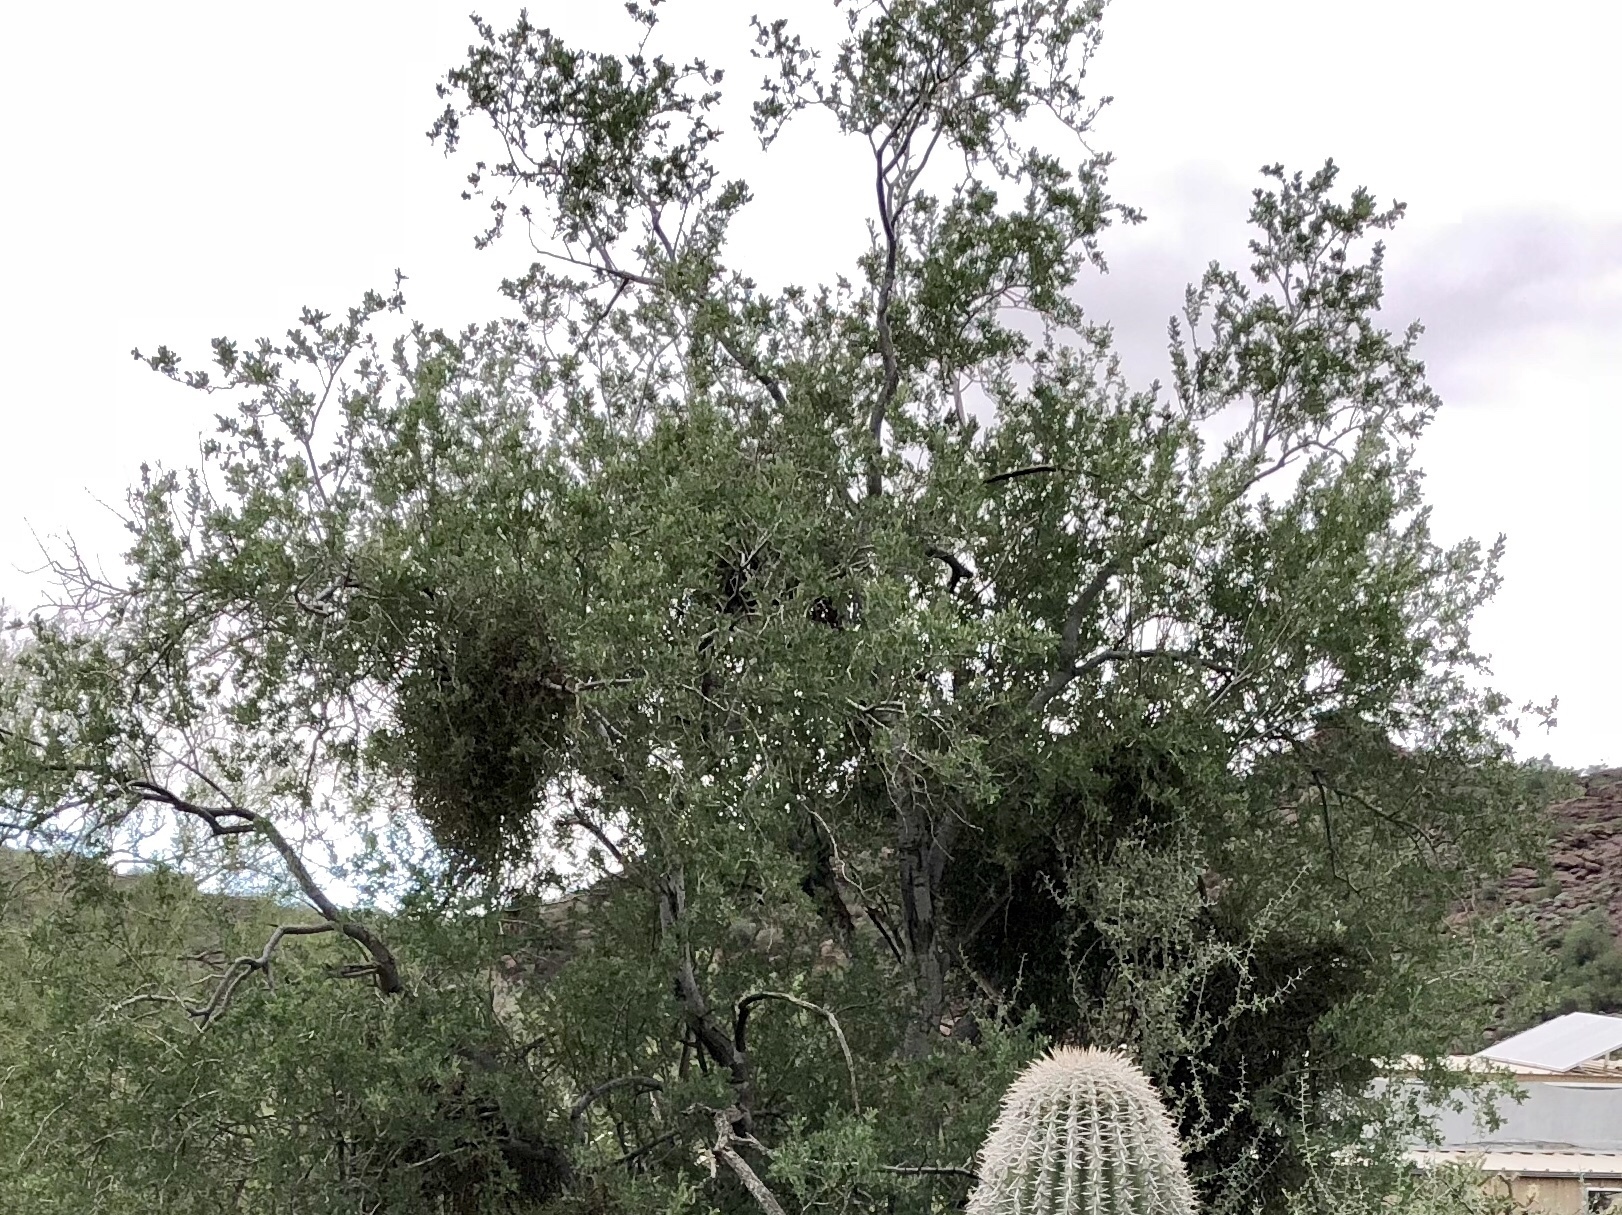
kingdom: Plantae
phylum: Tracheophyta
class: Magnoliopsida
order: Fabales
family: Fabaceae
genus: Olneya
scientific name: Olneya tesota
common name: Desert ironwood
